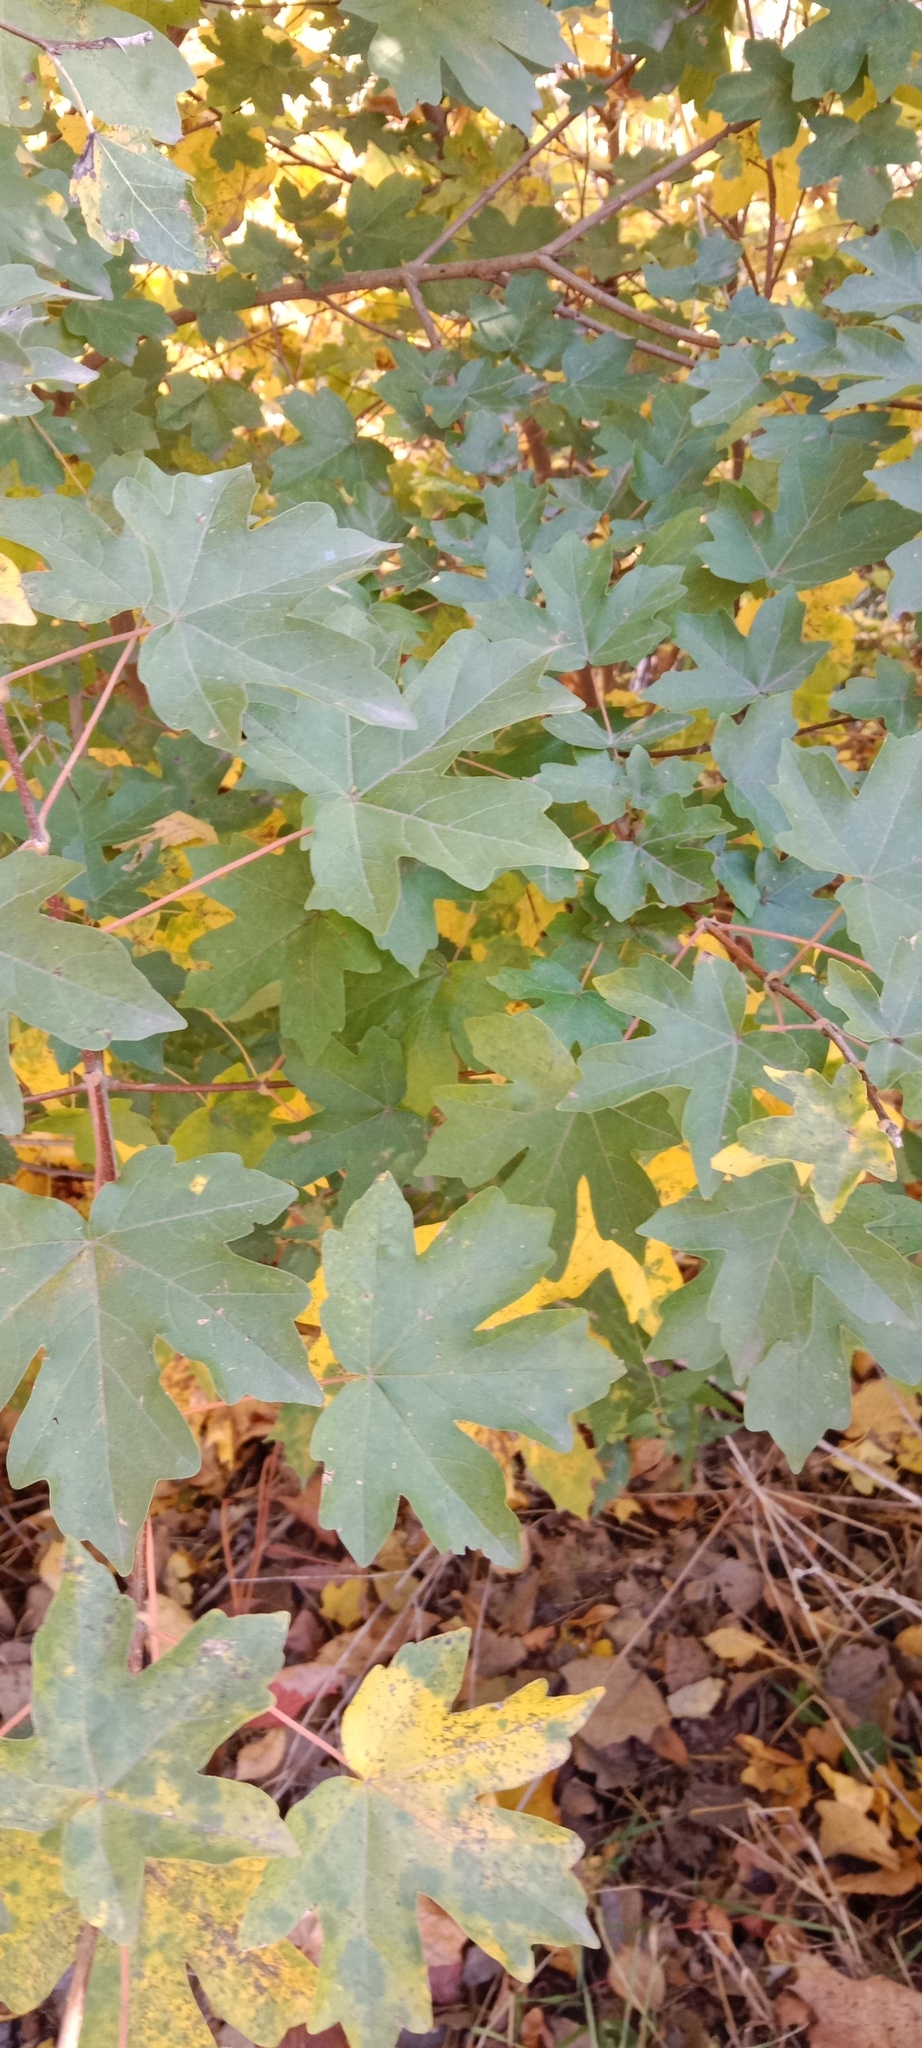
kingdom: Plantae
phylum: Tracheophyta
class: Magnoliopsida
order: Sapindales
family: Sapindaceae
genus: Acer
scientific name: Acer campestre
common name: Field maple
